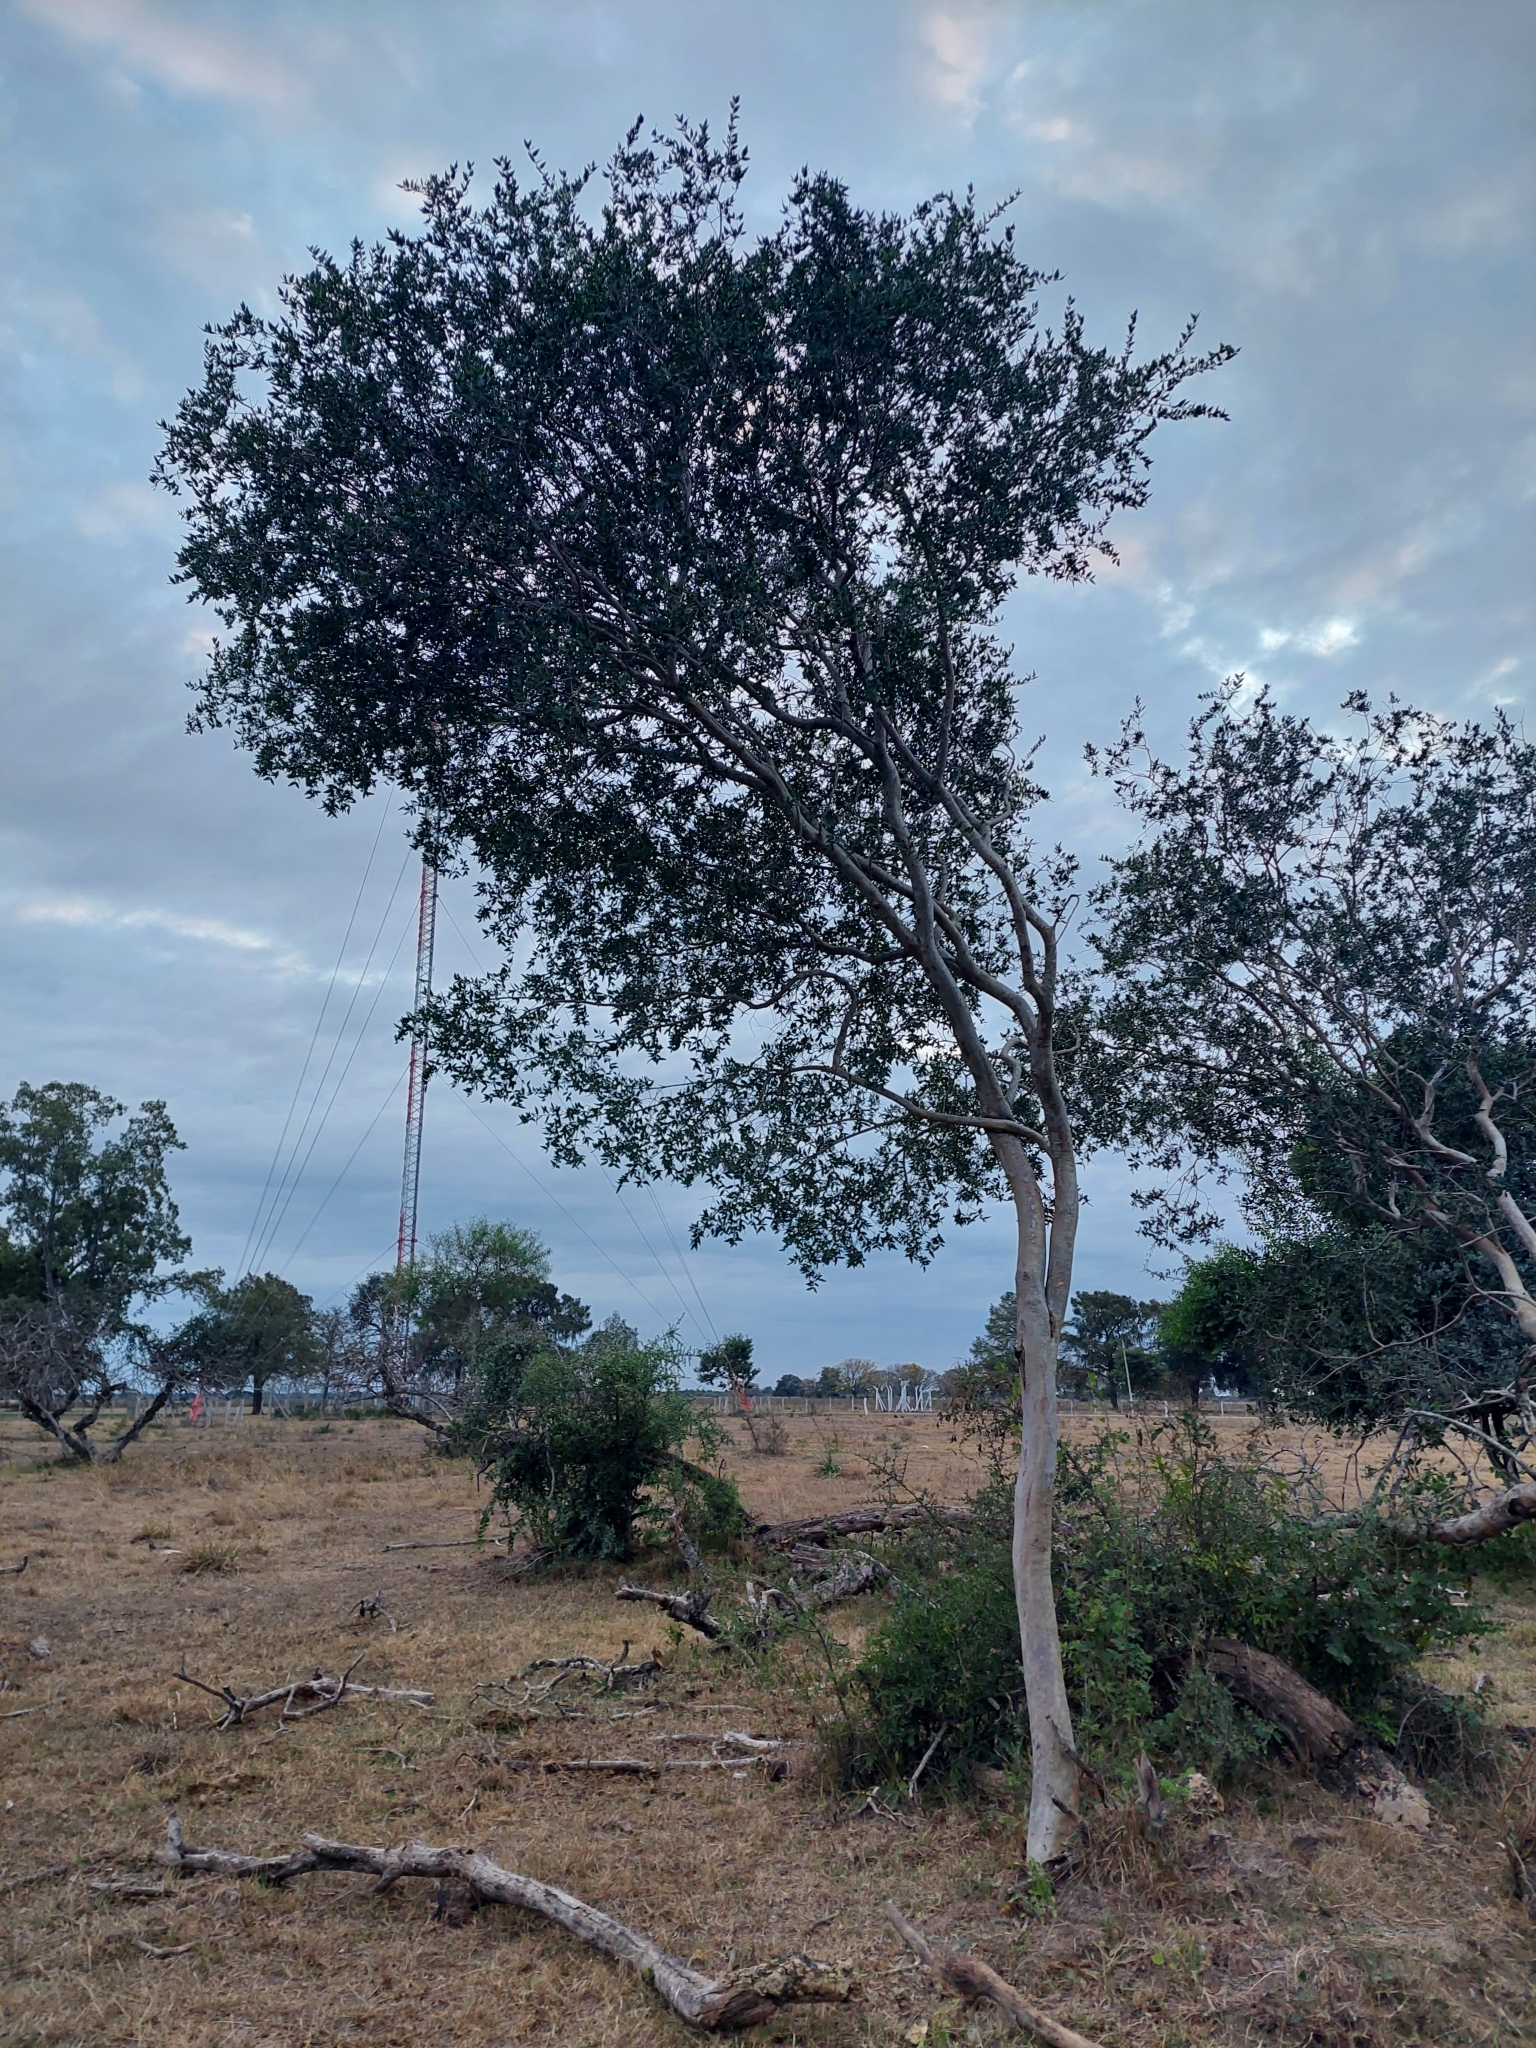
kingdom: Plantae
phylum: Tracheophyta
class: Magnoliopsida
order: Myrtales
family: Myrtaceae
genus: Myrcianthes
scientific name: Myrcianthes cisplatensis
